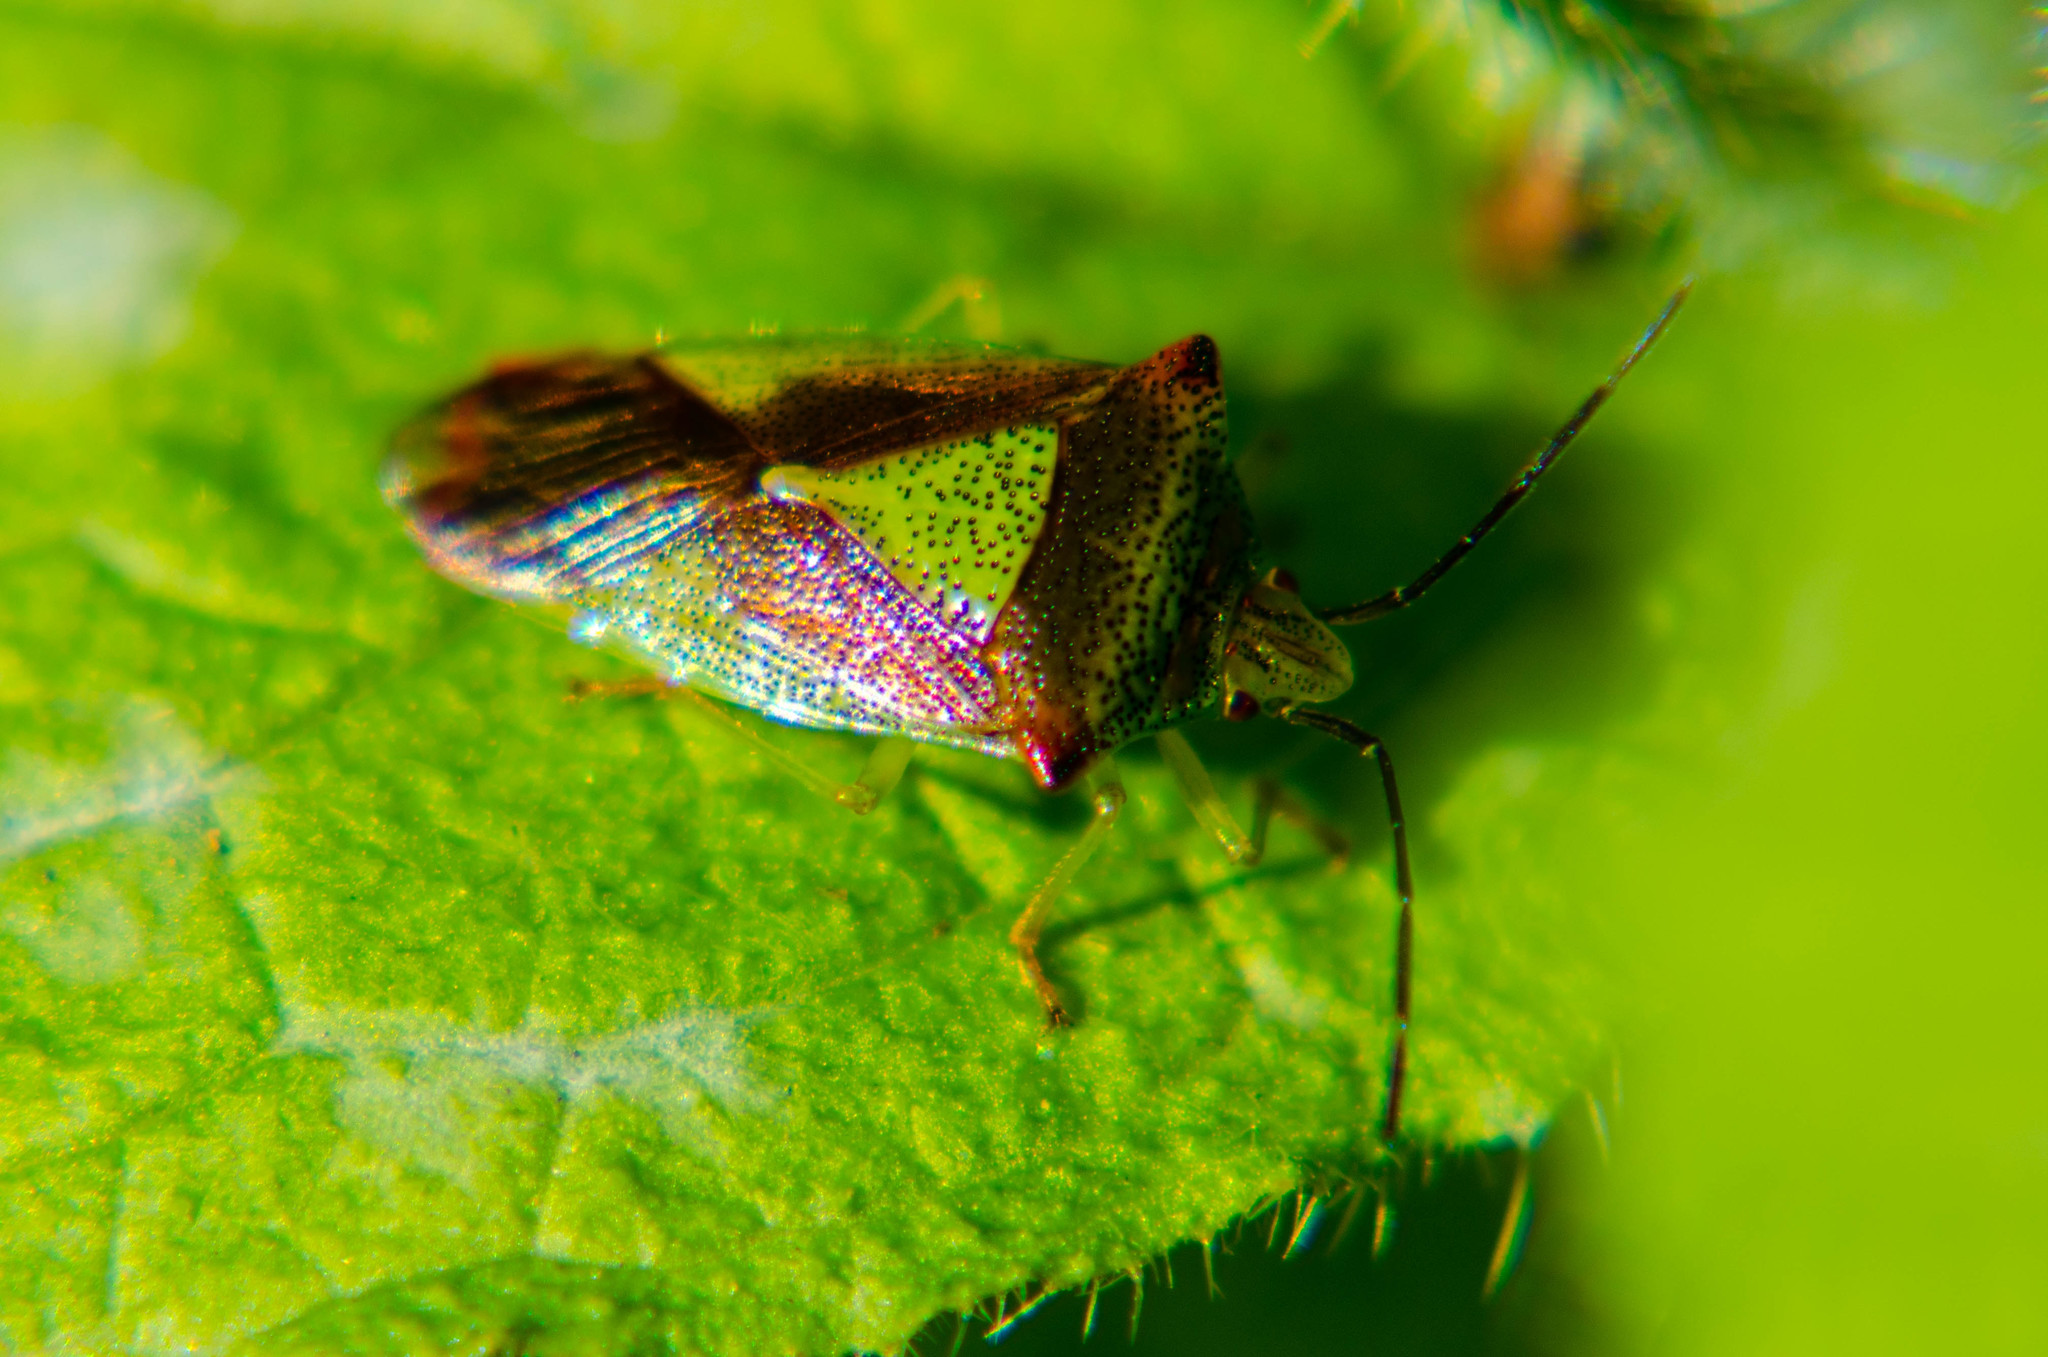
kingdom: Animalia
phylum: Arthropoda
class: Insecta
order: Hemiptera
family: Acanthosomatidae
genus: Acanthosoma
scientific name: Acanthosoma haemorrhoidale
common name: Hawthorn shieldbug
